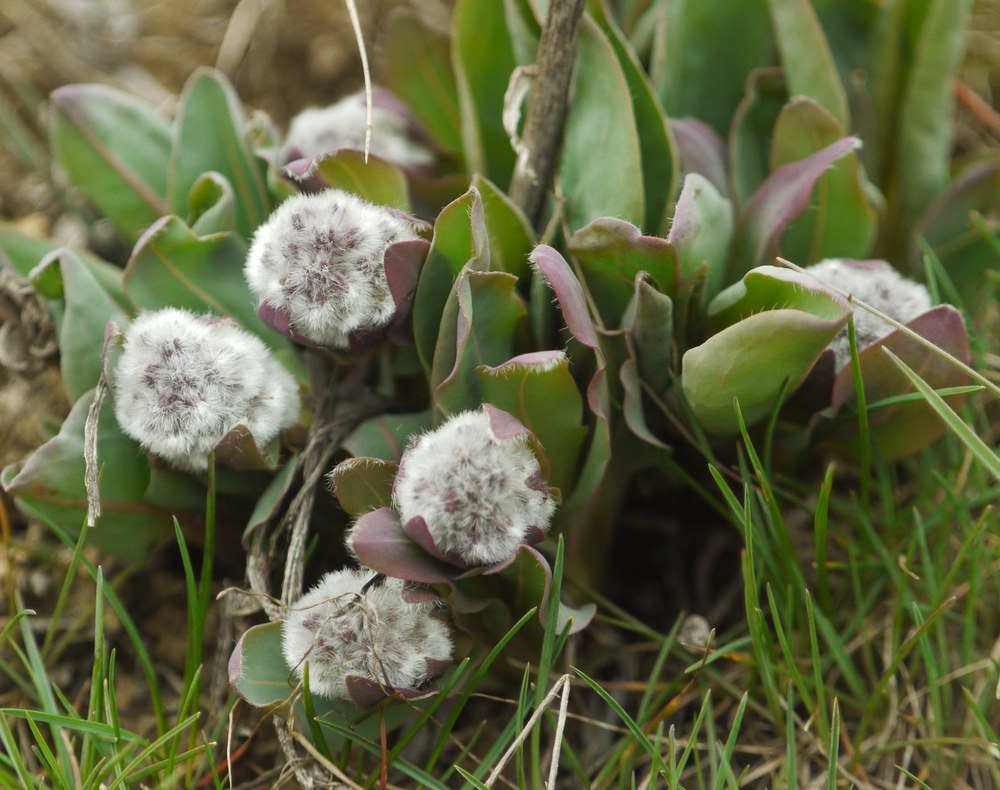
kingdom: Plantae
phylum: Tracheophyta
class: Magnoliopsida
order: Boraginales
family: Boraginaceae
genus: Rindera
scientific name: Rindera tetraspis
